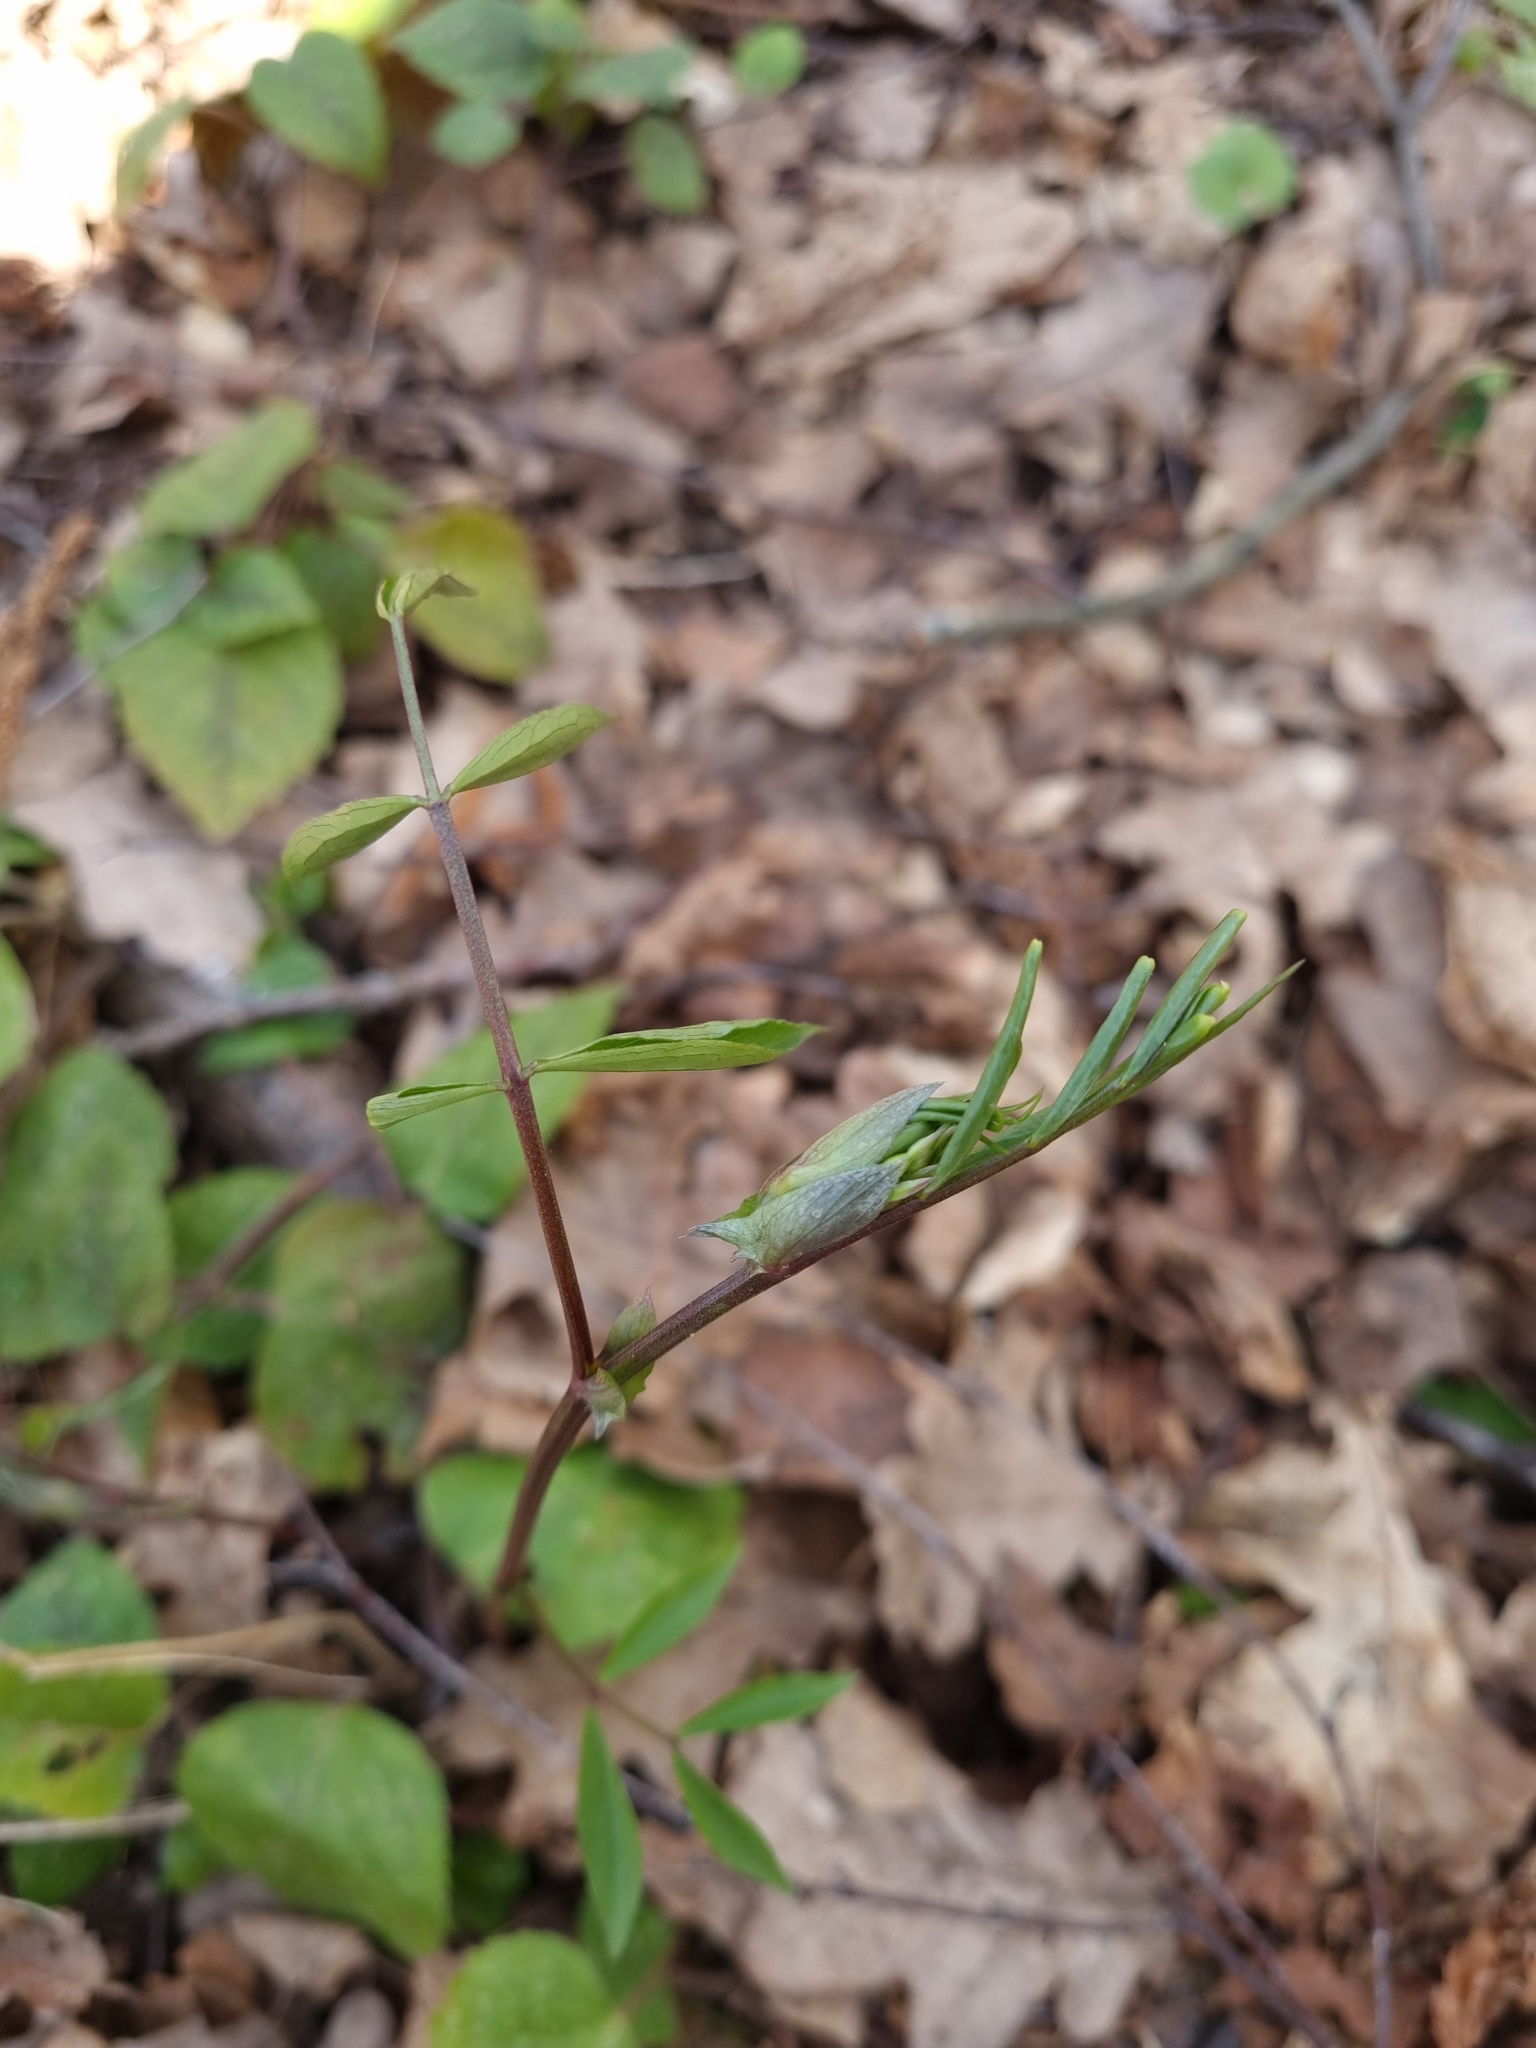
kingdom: Plantae
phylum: Tracheophyta
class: Magnoliopsida
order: Fabales
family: Fabaceae
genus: Lathyrus
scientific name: Lathyrus vernus
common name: Spring pea
